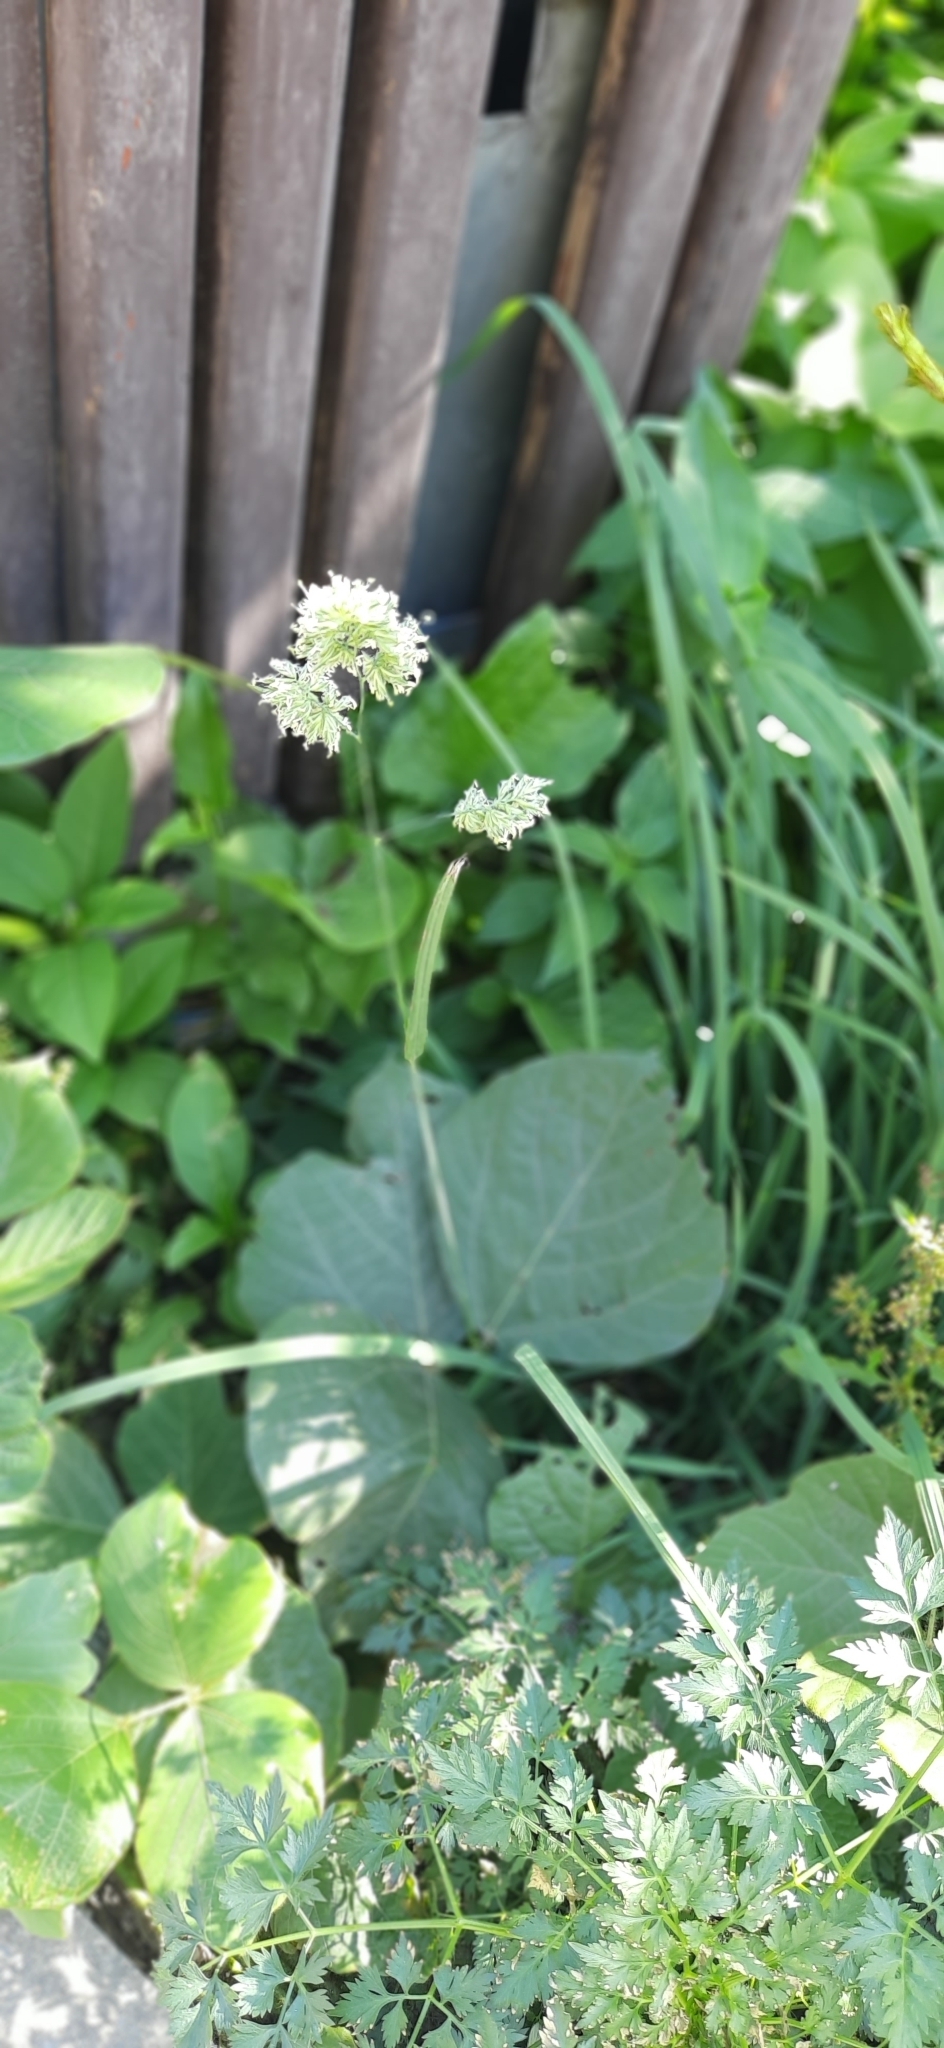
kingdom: Plantae
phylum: Tracheophyta
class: Liliopsida
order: Poales
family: Poaceae
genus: Dactylis
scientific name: Dactylis glomerata
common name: Orchardgrass
